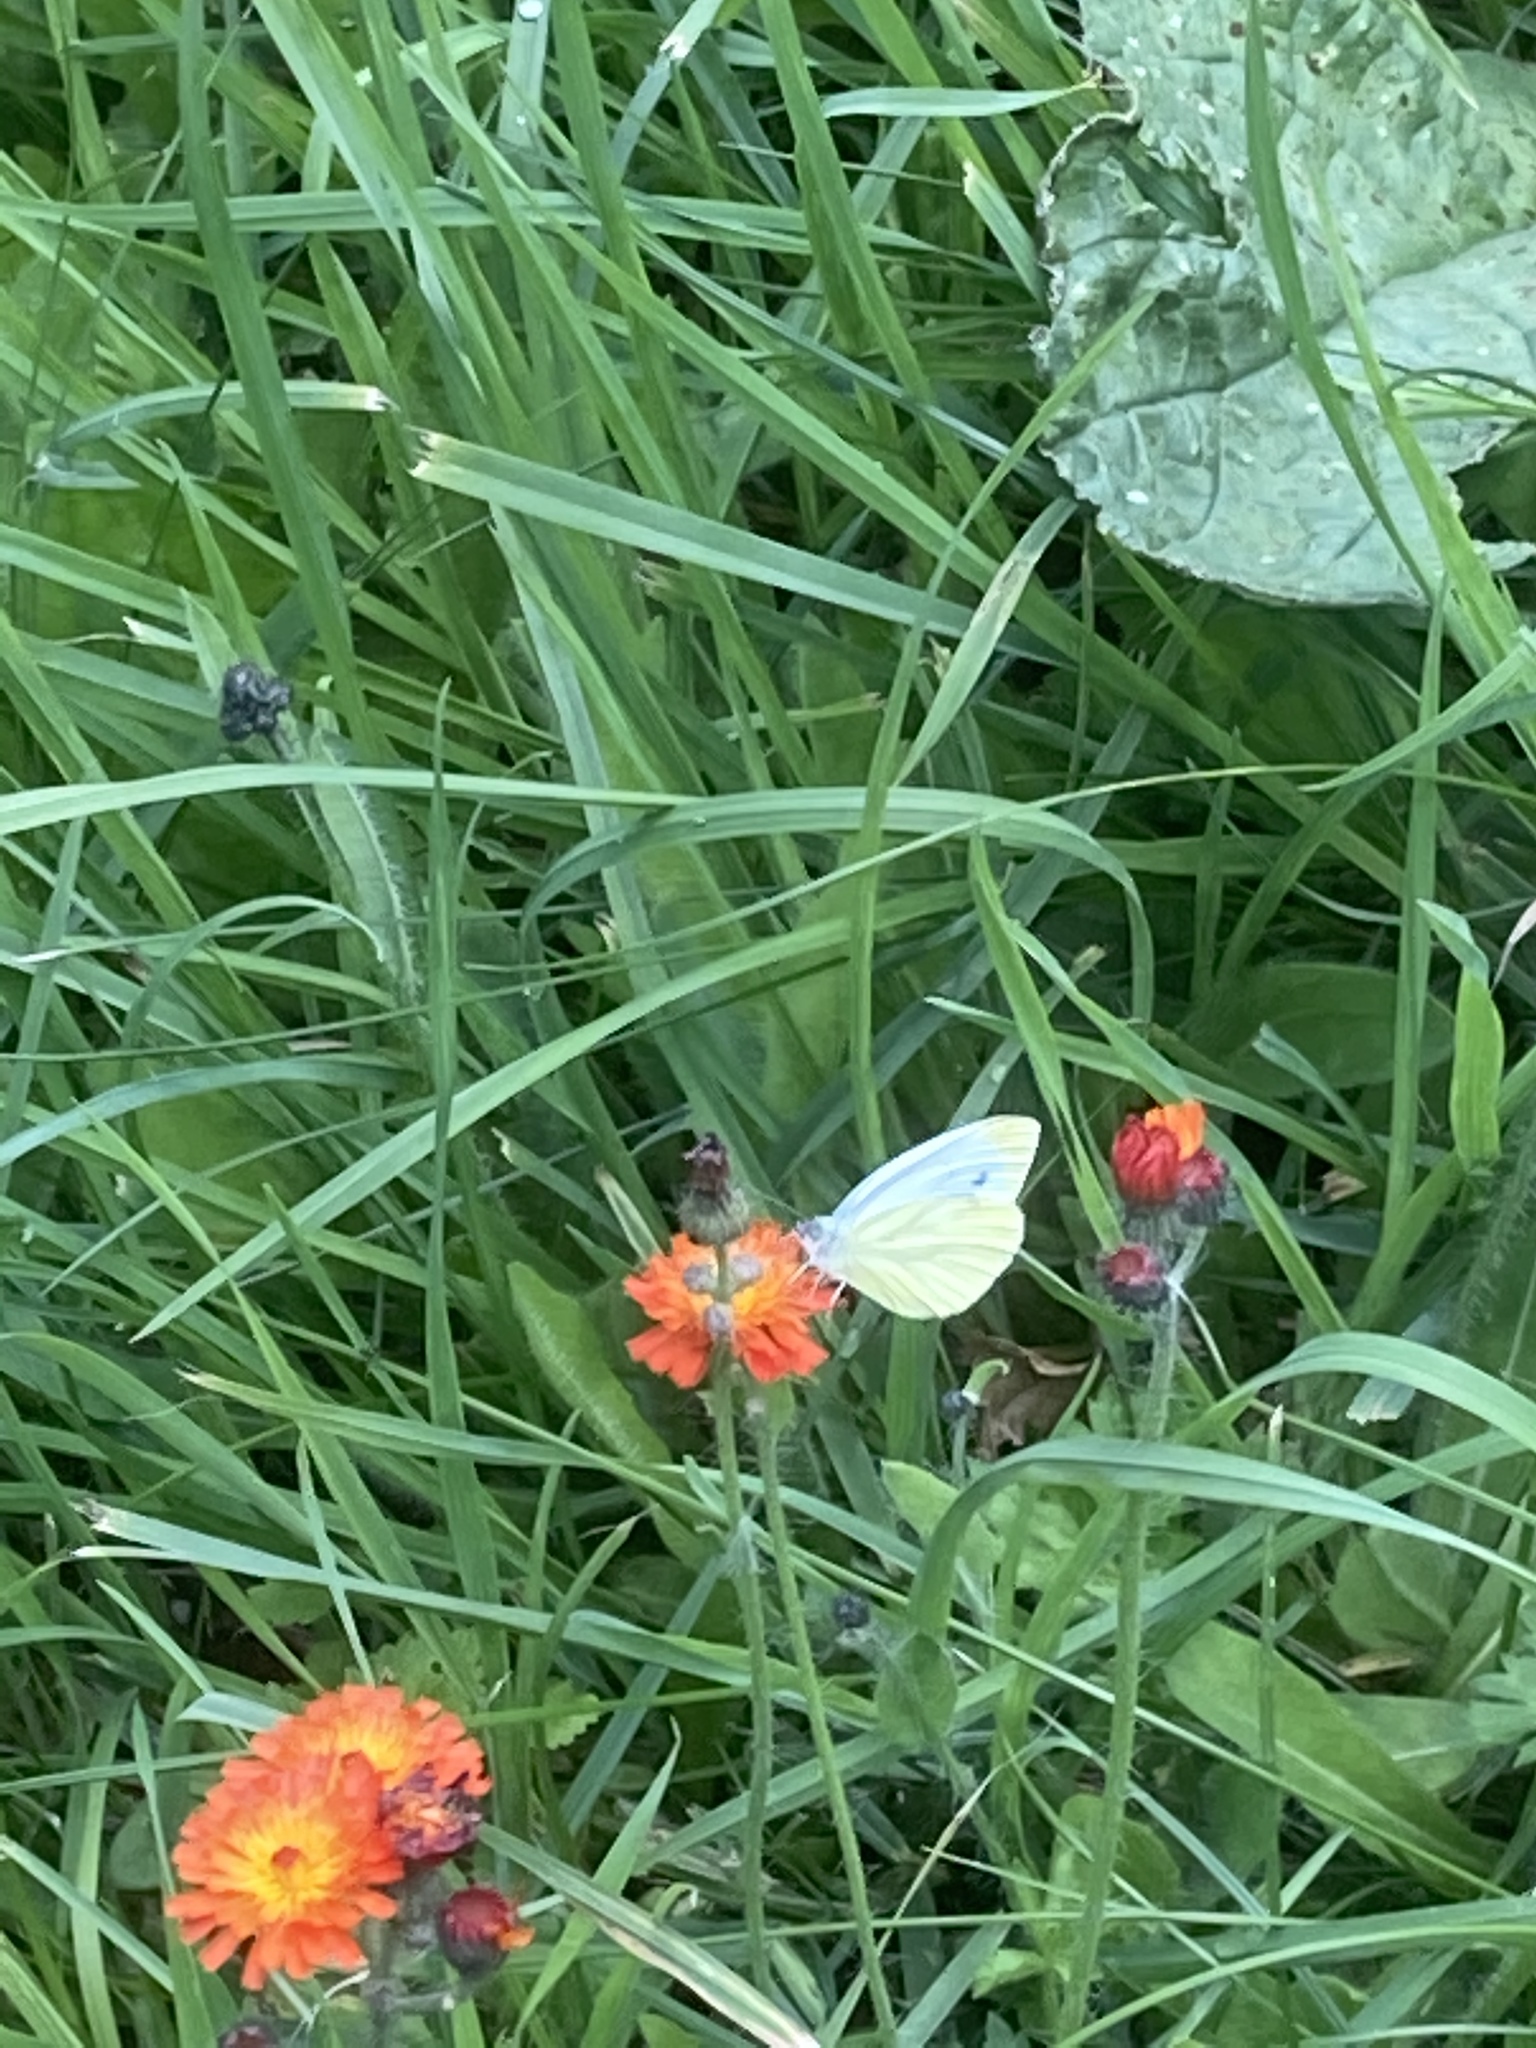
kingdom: Plantae
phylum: Tracheophyta
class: Magnoliopsida
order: Asterales
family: Asteraceae
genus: Pilosella
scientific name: Pilosella aurantiaca
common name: Fox-and-cubs
